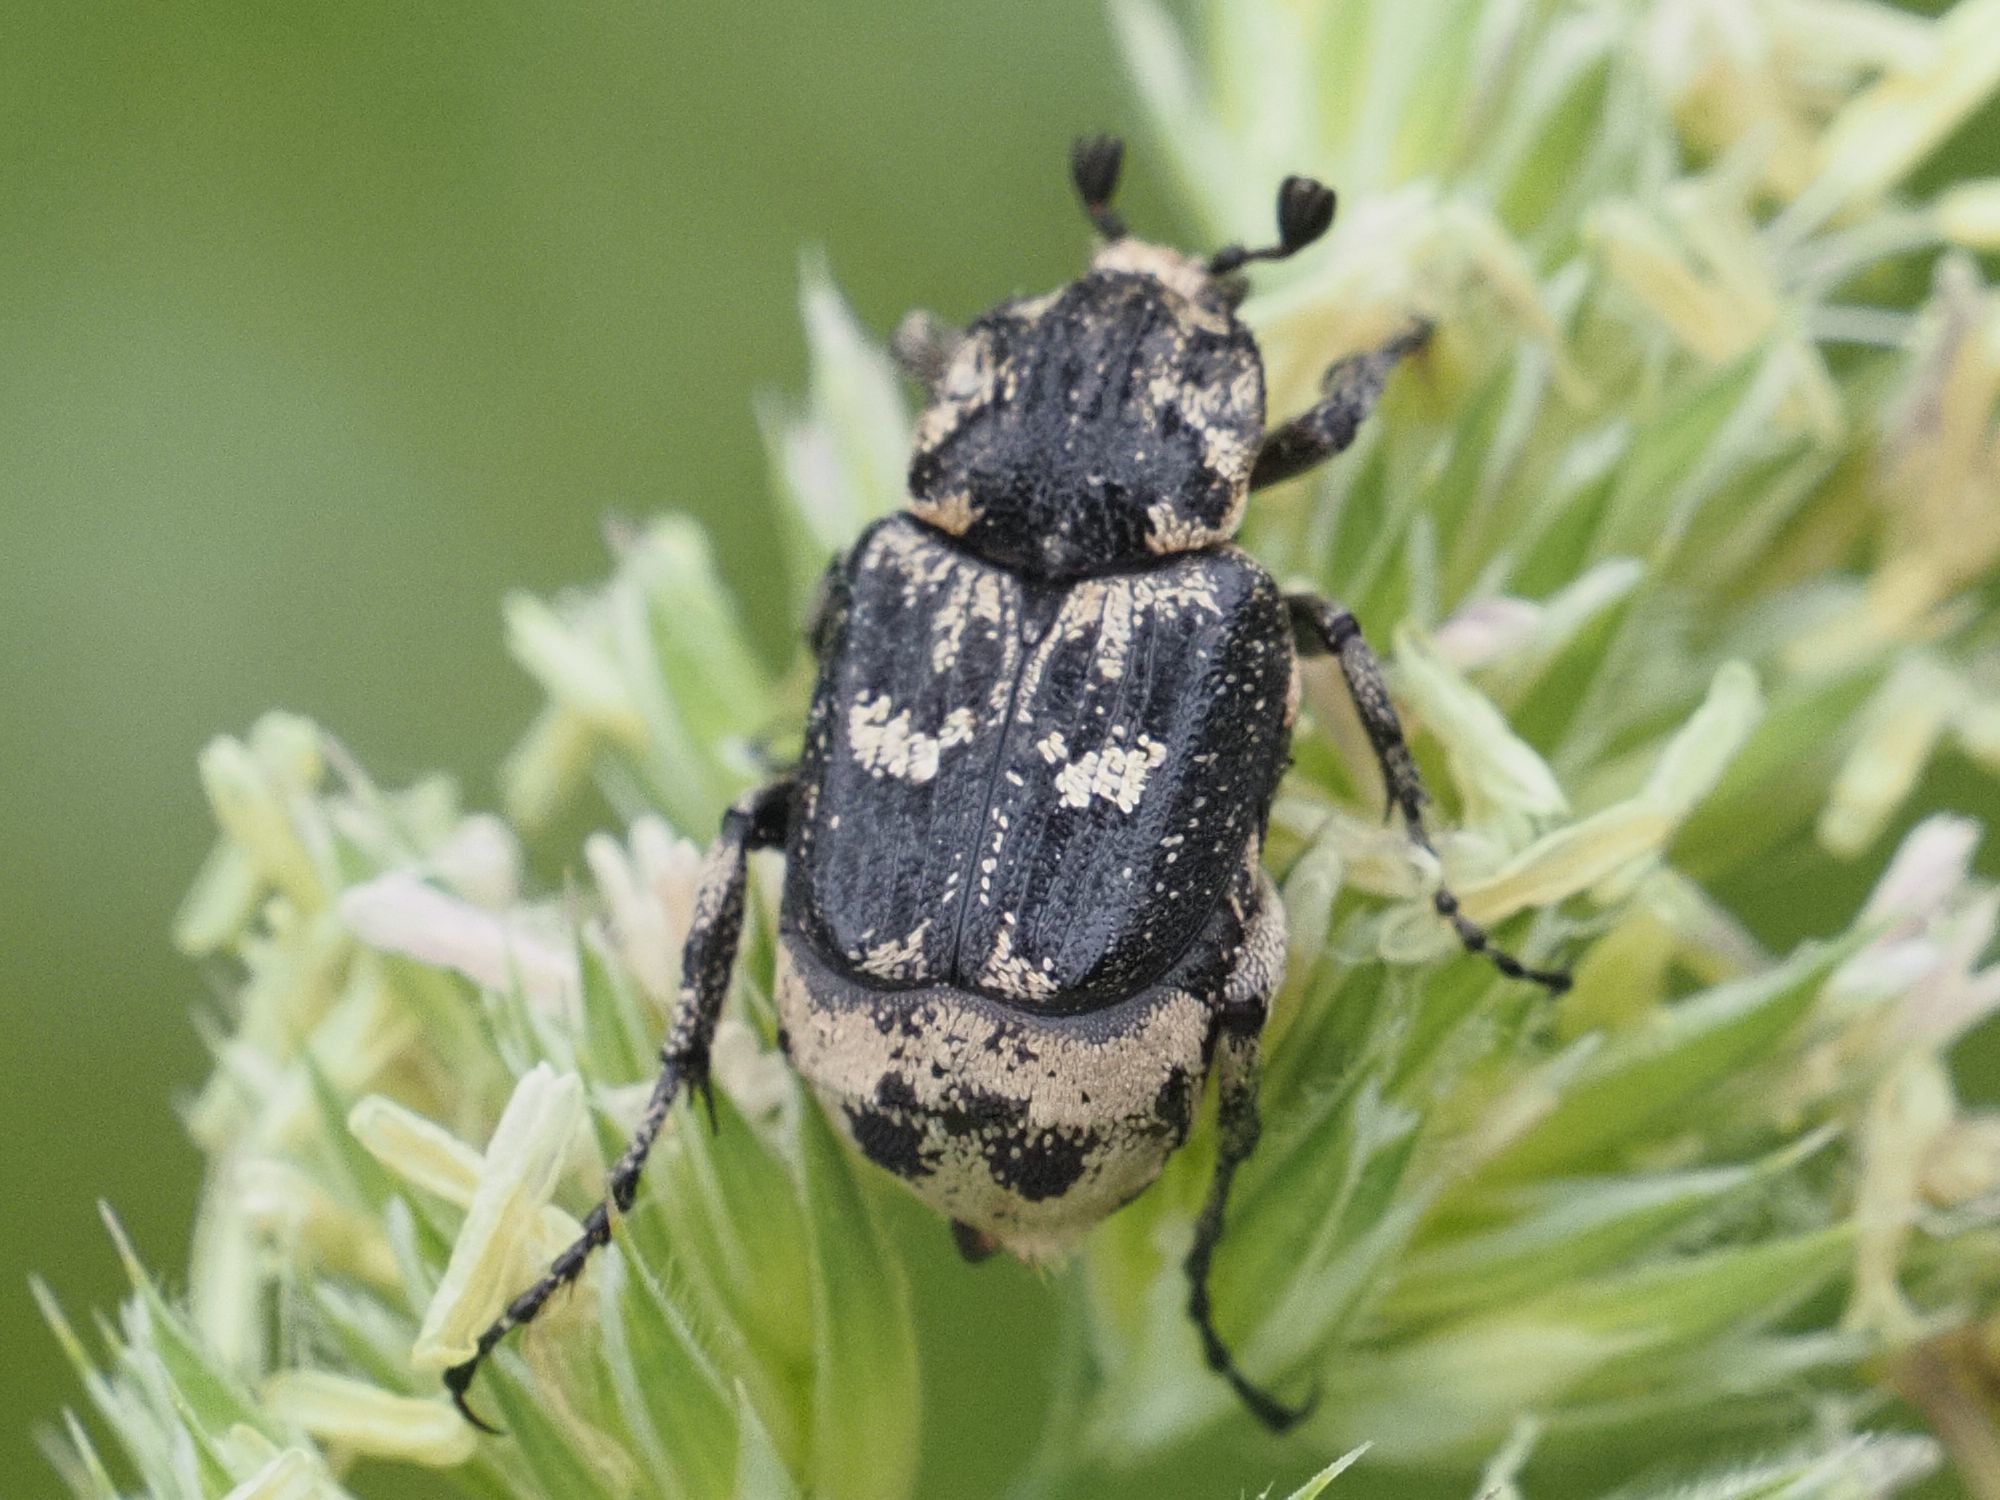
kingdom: Animalia
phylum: Arthropoda
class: Insecta
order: Coleoptera
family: Scarabaeidae
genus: Valgus
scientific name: Valgus hemipterus
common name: Bug flower chafer
